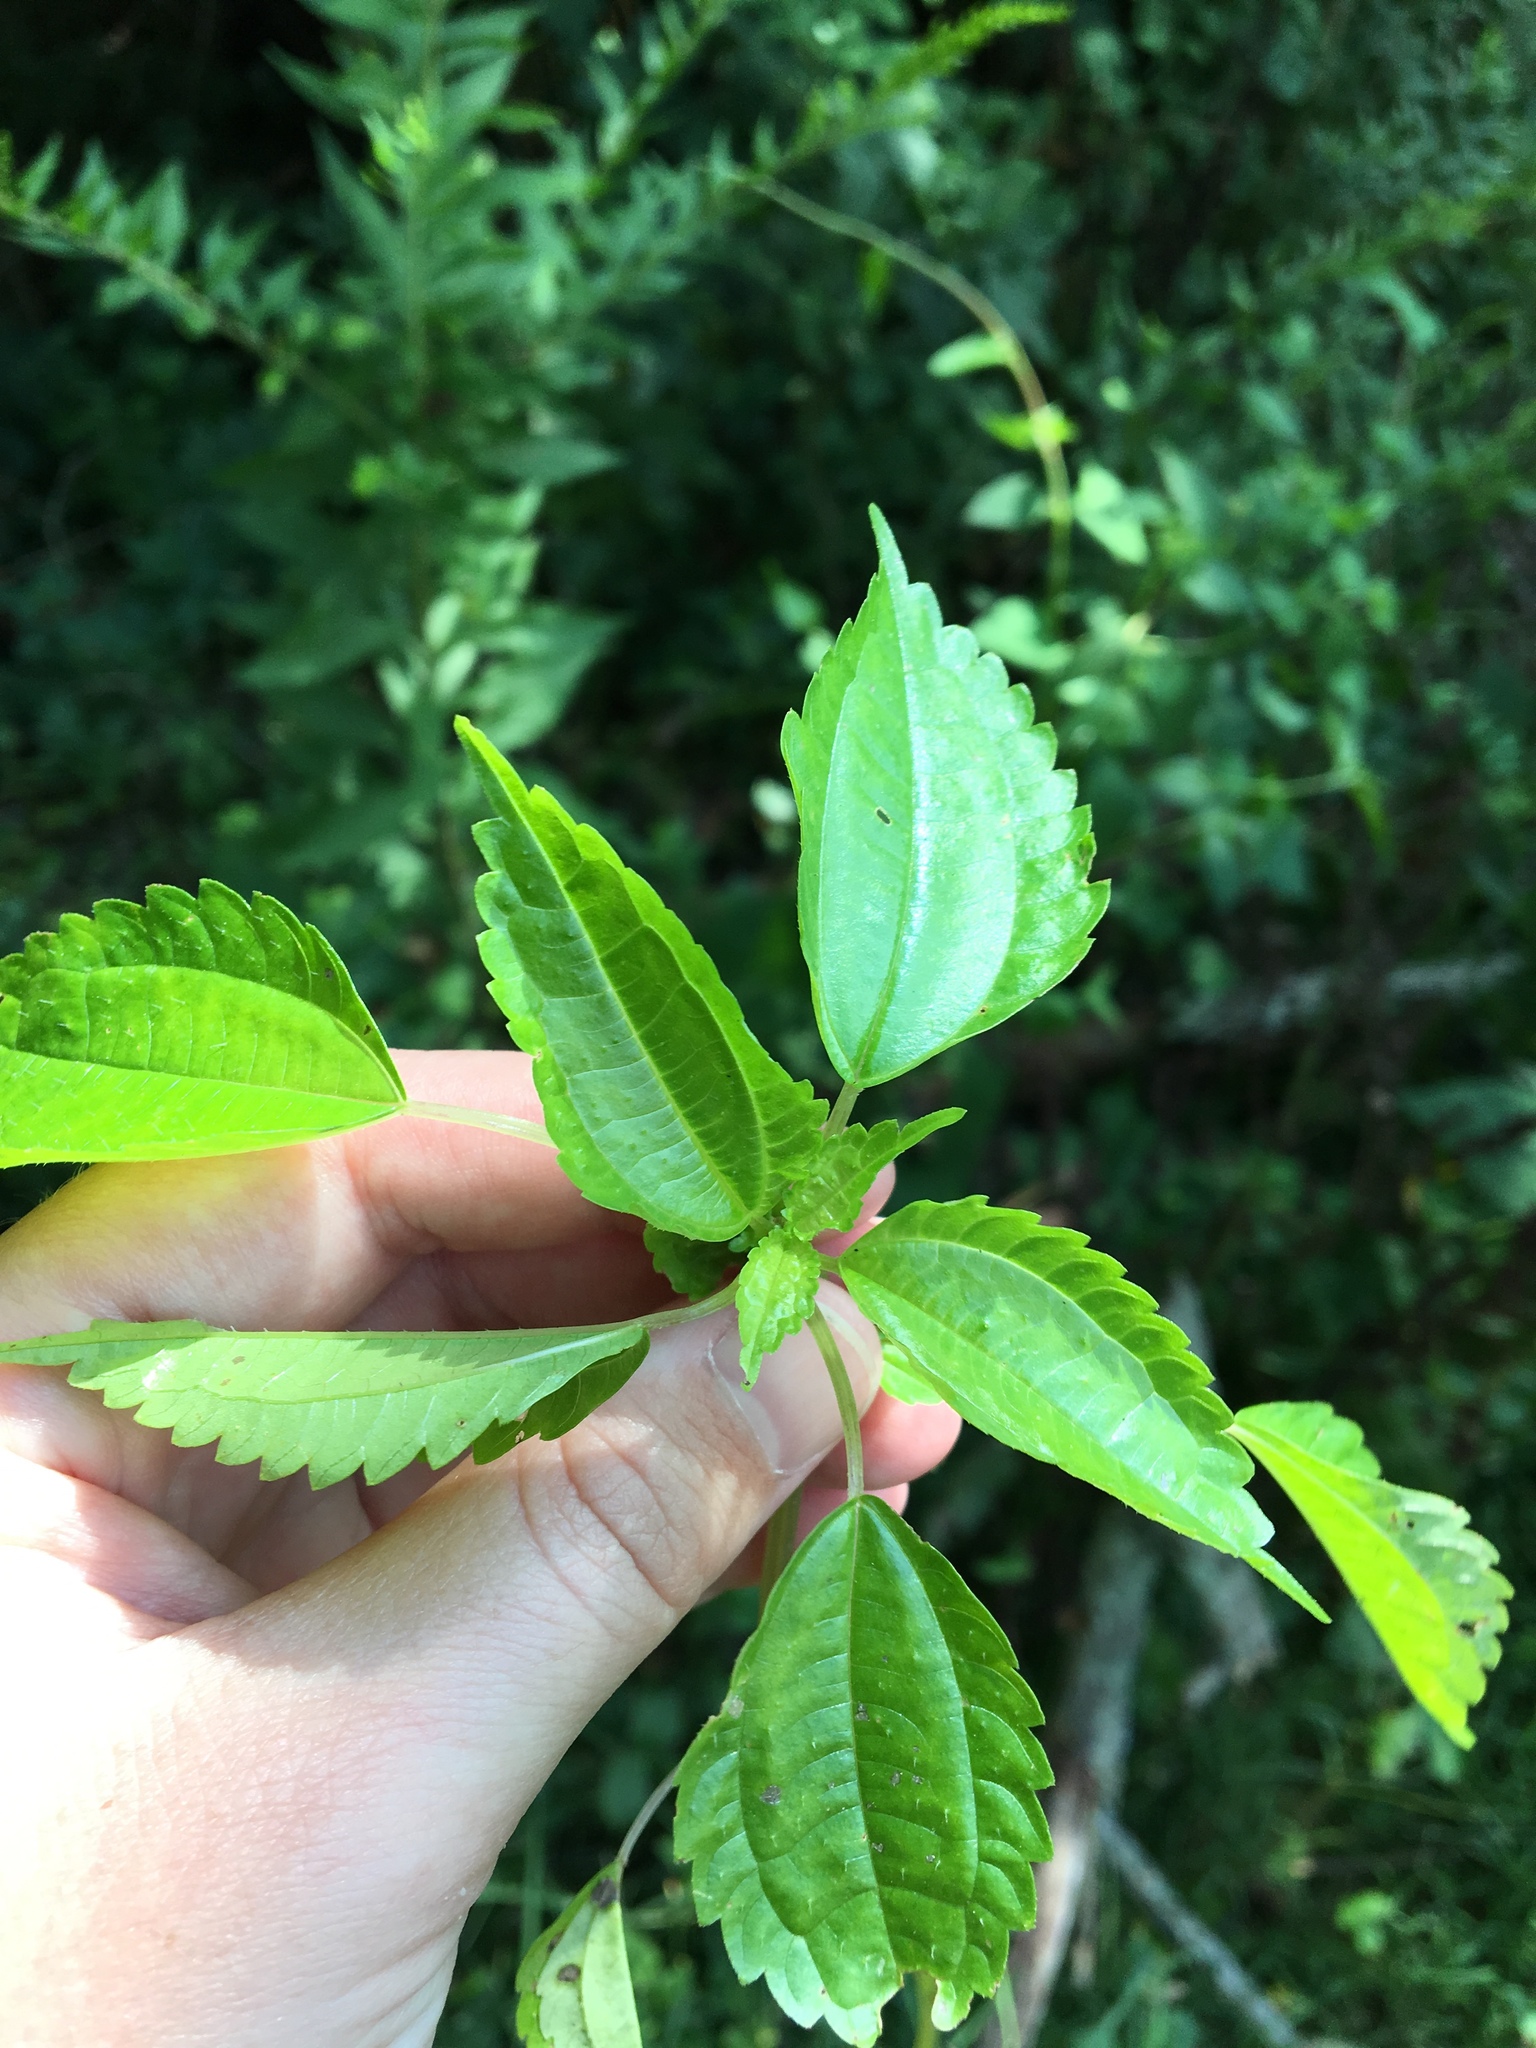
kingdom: Plantae
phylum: Tracheophyta
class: Magnoliopsida
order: Rosales
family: Urticaceae
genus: Pilea
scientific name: Pilea pumila
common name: Clearweed
